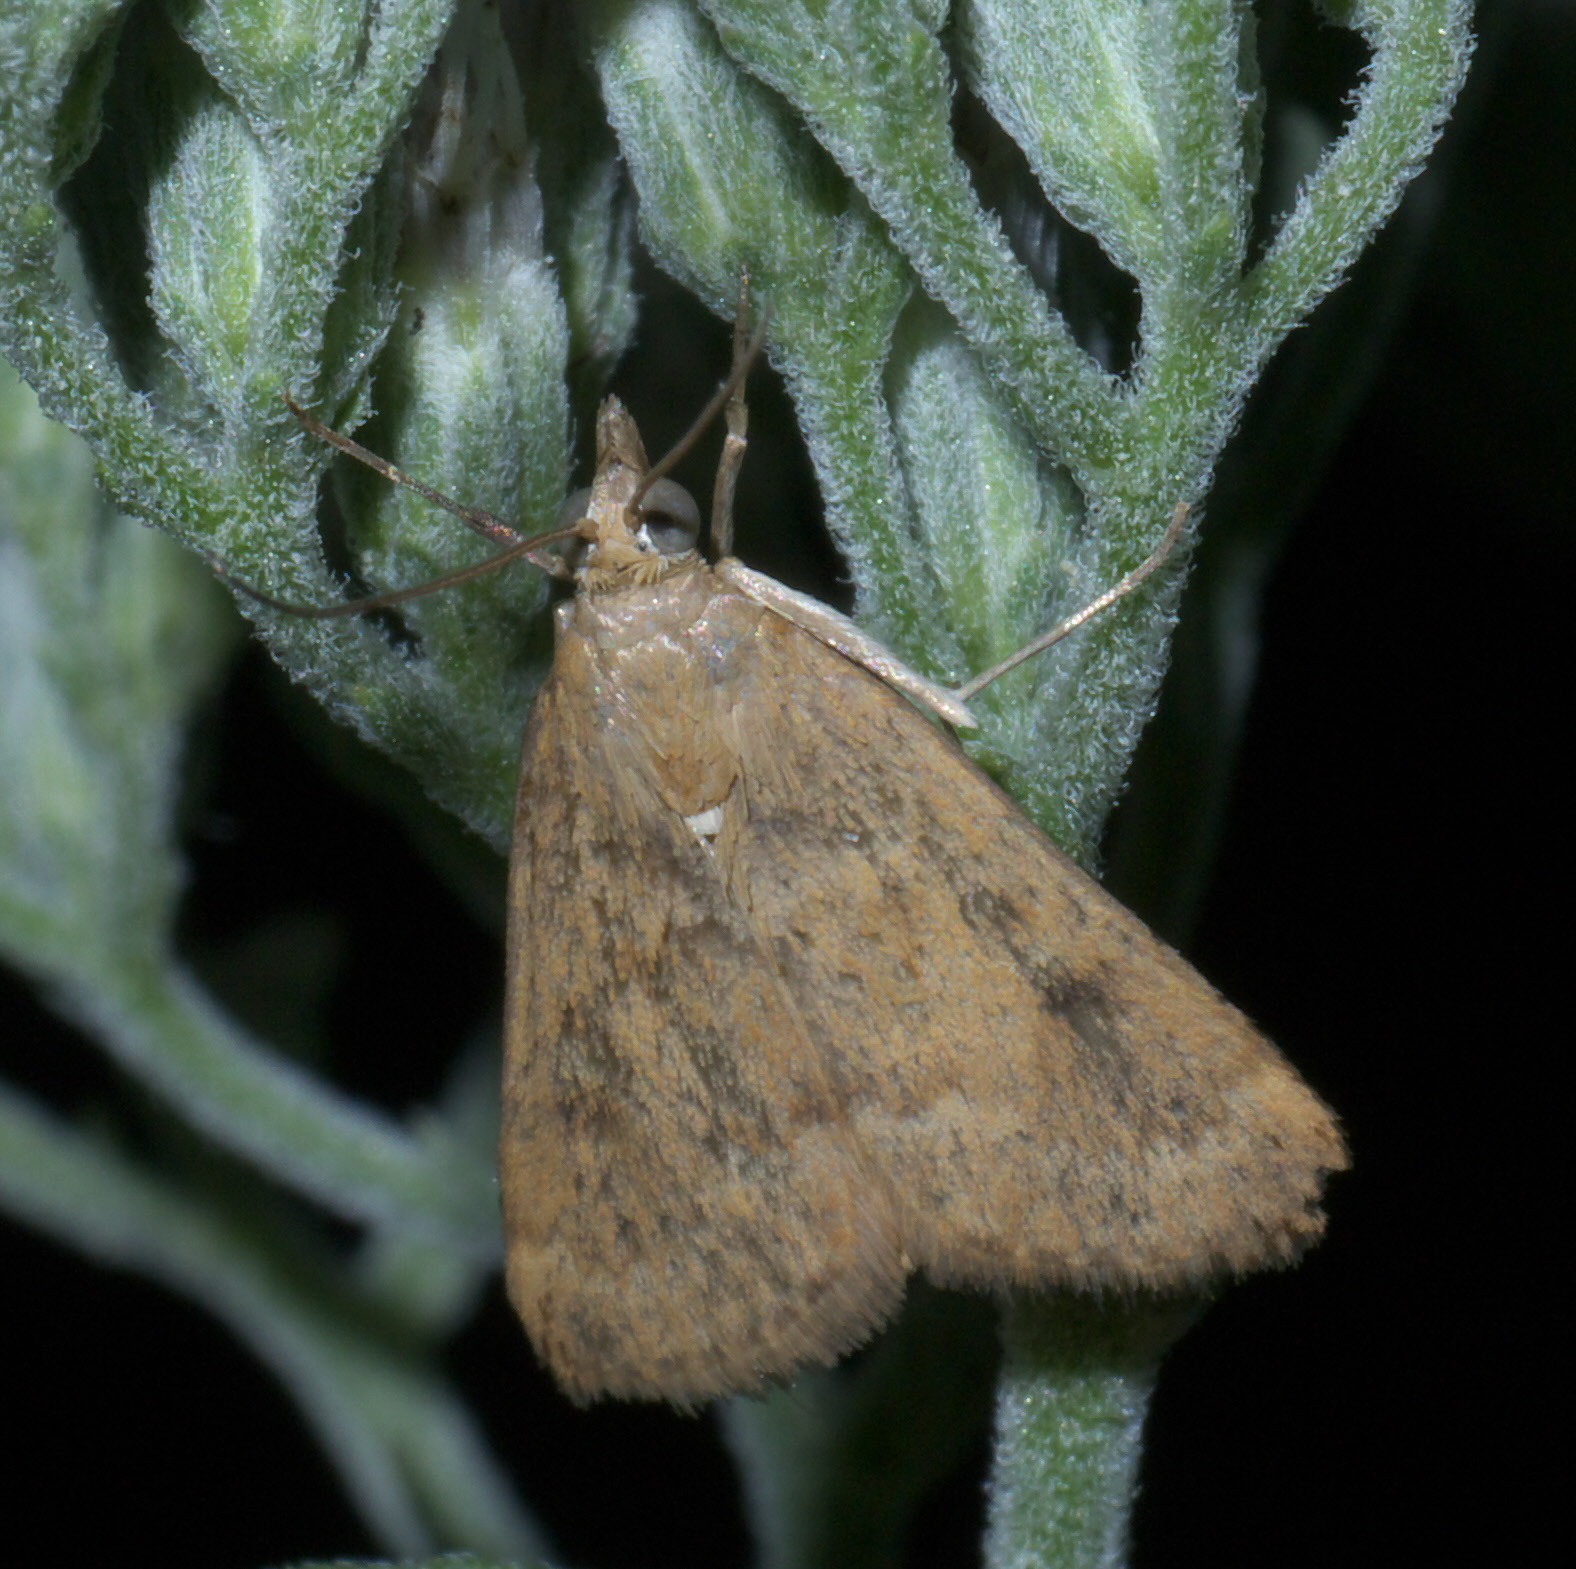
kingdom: Animalia
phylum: Arthropoda
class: Insecta
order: Lepidoptera
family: Crambidae
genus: Achyra
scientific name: Achyra rantalis
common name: Garden webworm
